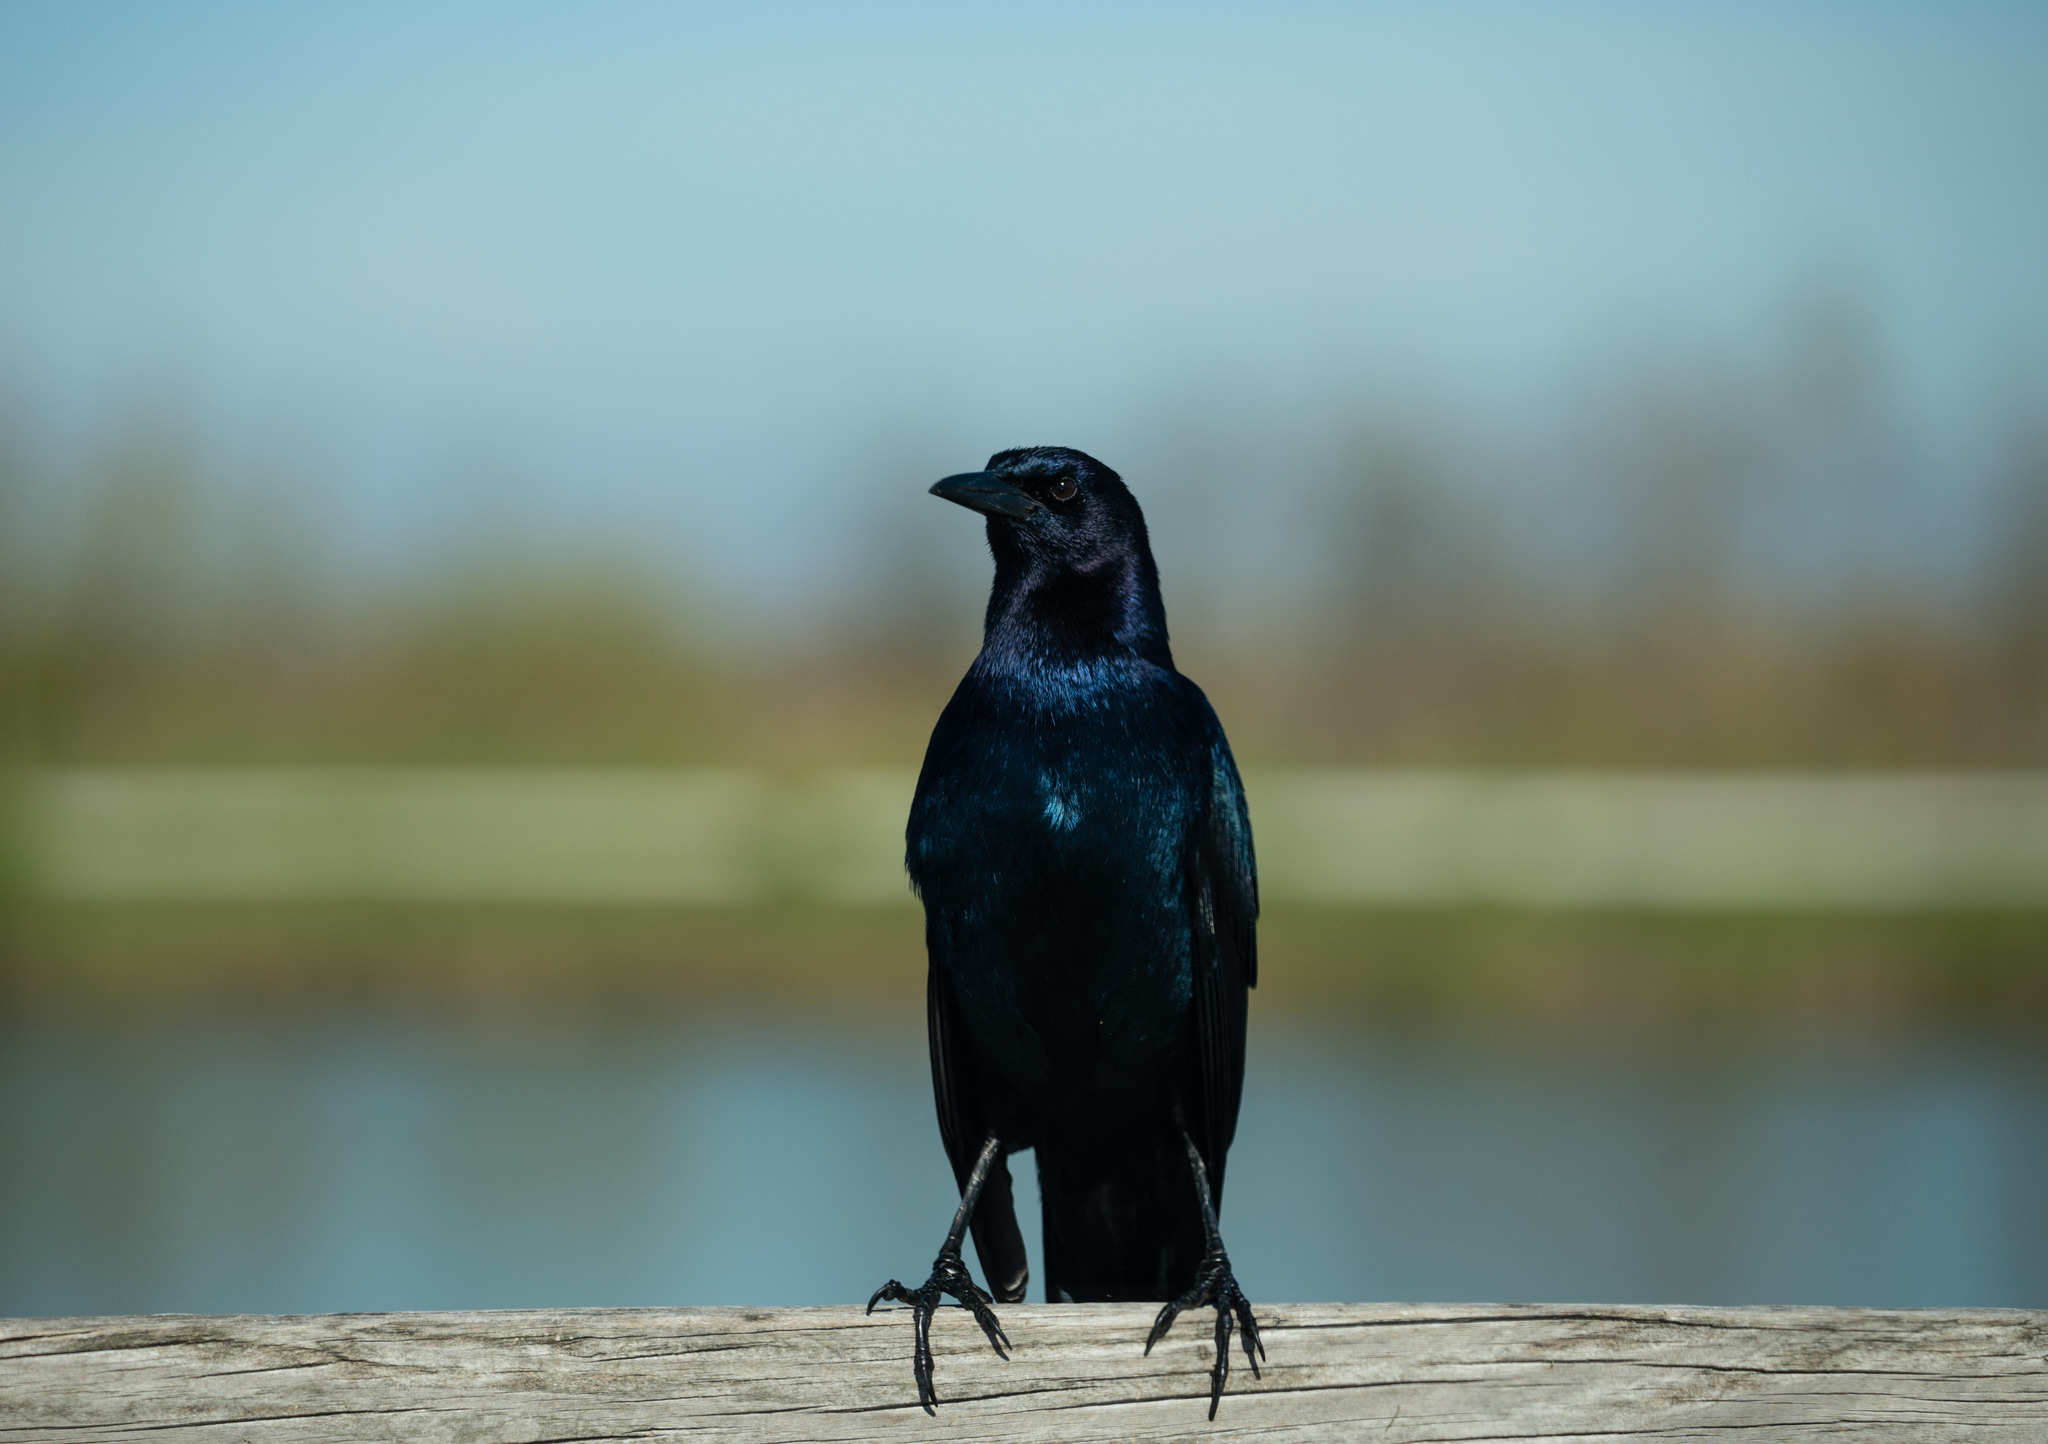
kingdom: Animalia
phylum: Chordata
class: Aves
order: Passeriformes
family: Icteridae
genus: Quiscalus
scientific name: Quiscalus major
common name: Boat-tailed grackle
